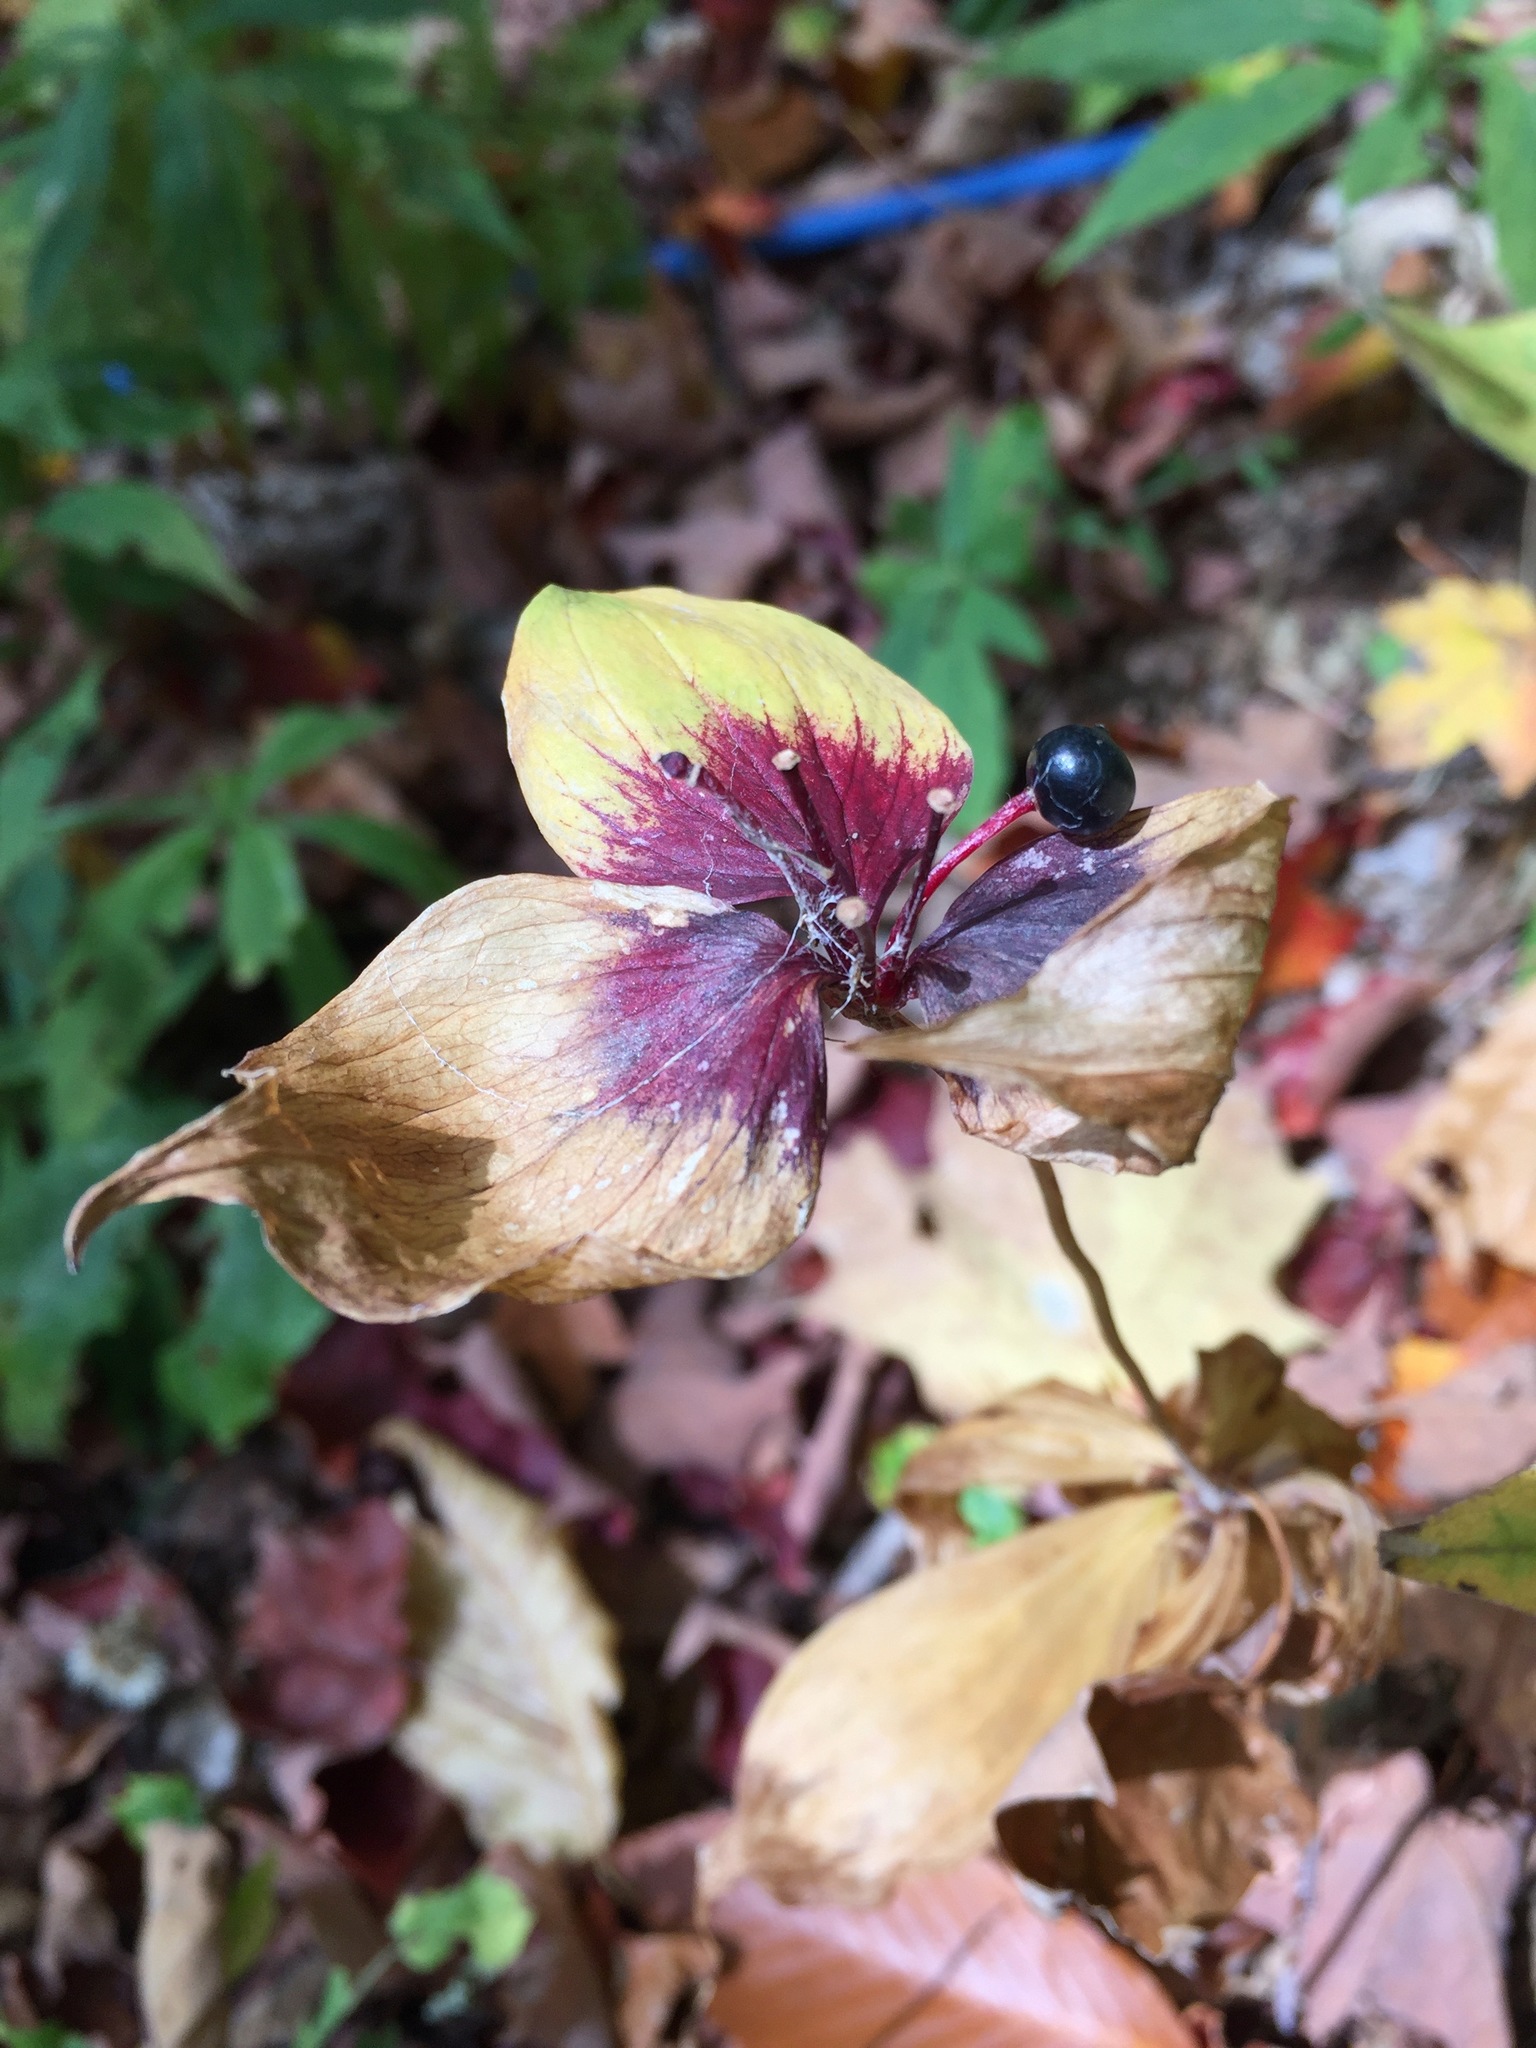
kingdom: Plantae
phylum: Tracheophyta
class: Liliopsida
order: Liliales
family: Liliaceae
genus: Medeola
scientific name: Medeola virginiana
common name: Indian cucumber-root
